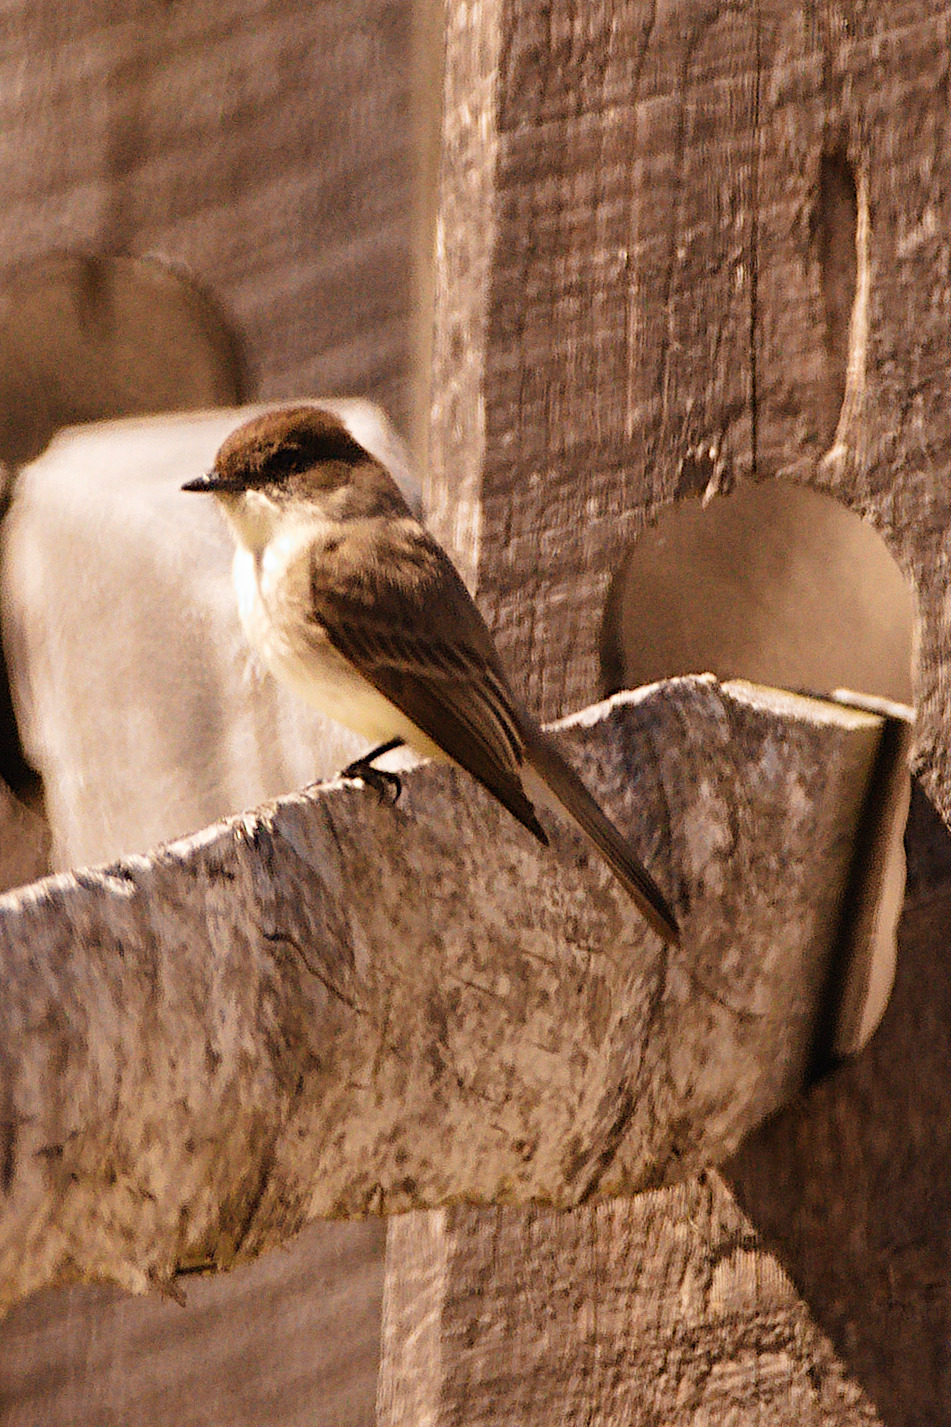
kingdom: Animalia
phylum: Chordata
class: Aves
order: Passeriformes
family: Tyrannidae
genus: Sayornis
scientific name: Sayornis phoebe
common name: Eastern phoebe
